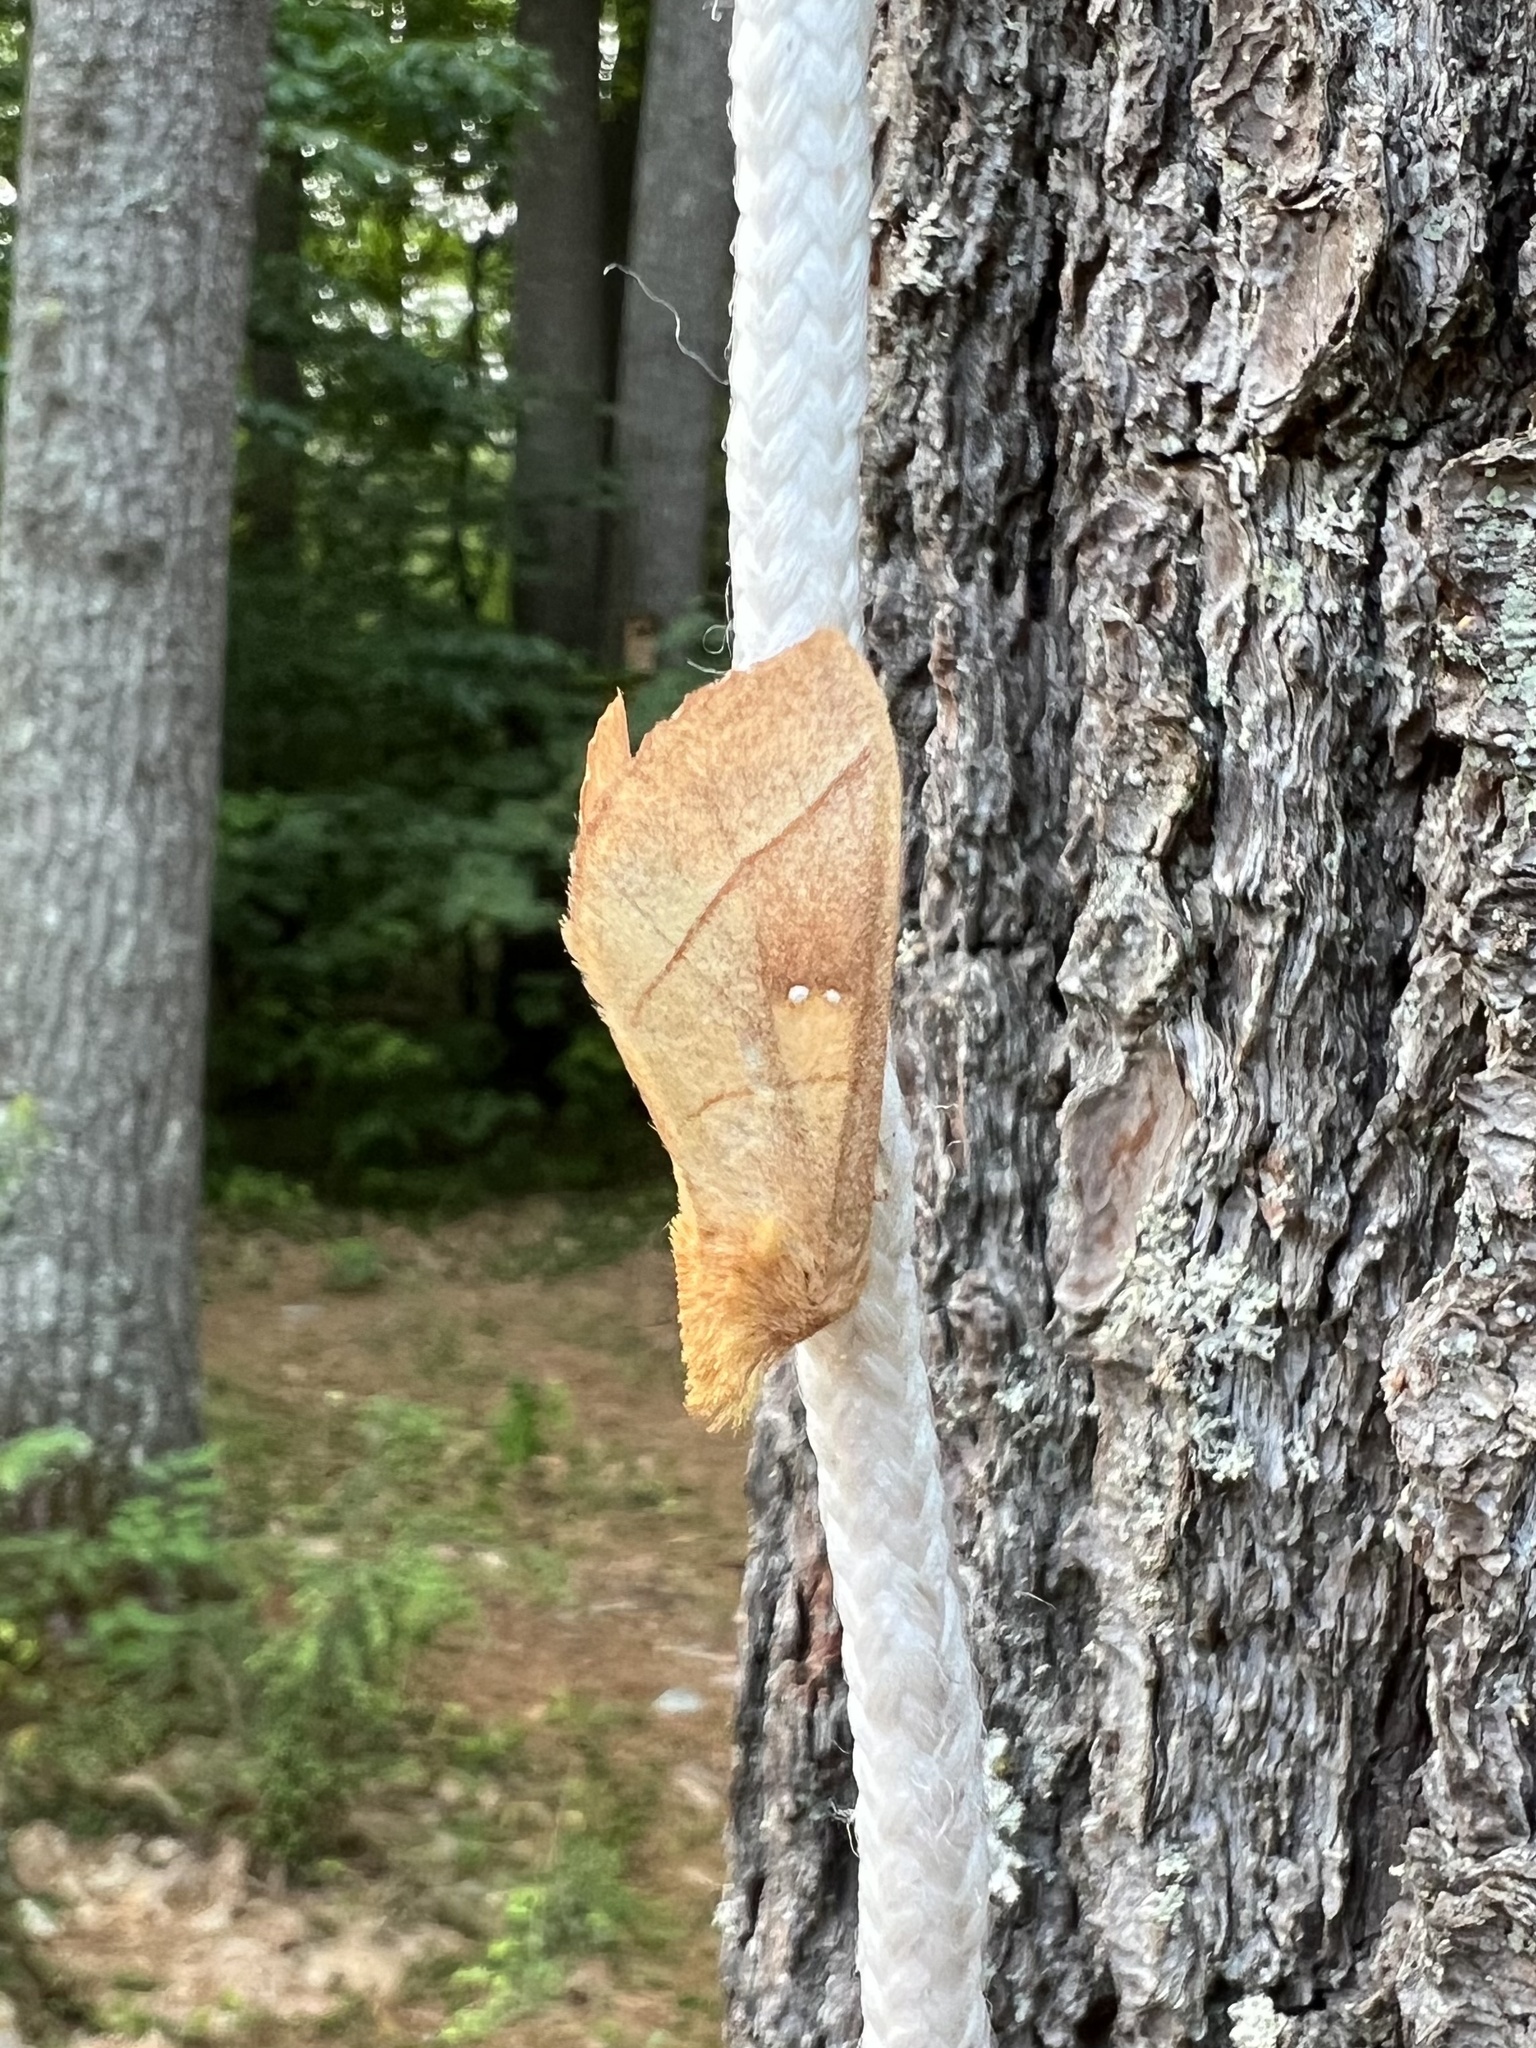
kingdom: Animalia
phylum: Arthropoda
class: Insecta
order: Lepidoptera
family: Notodontidae
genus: Nadata
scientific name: Nadata gibbosa
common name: White-dotted prominent
